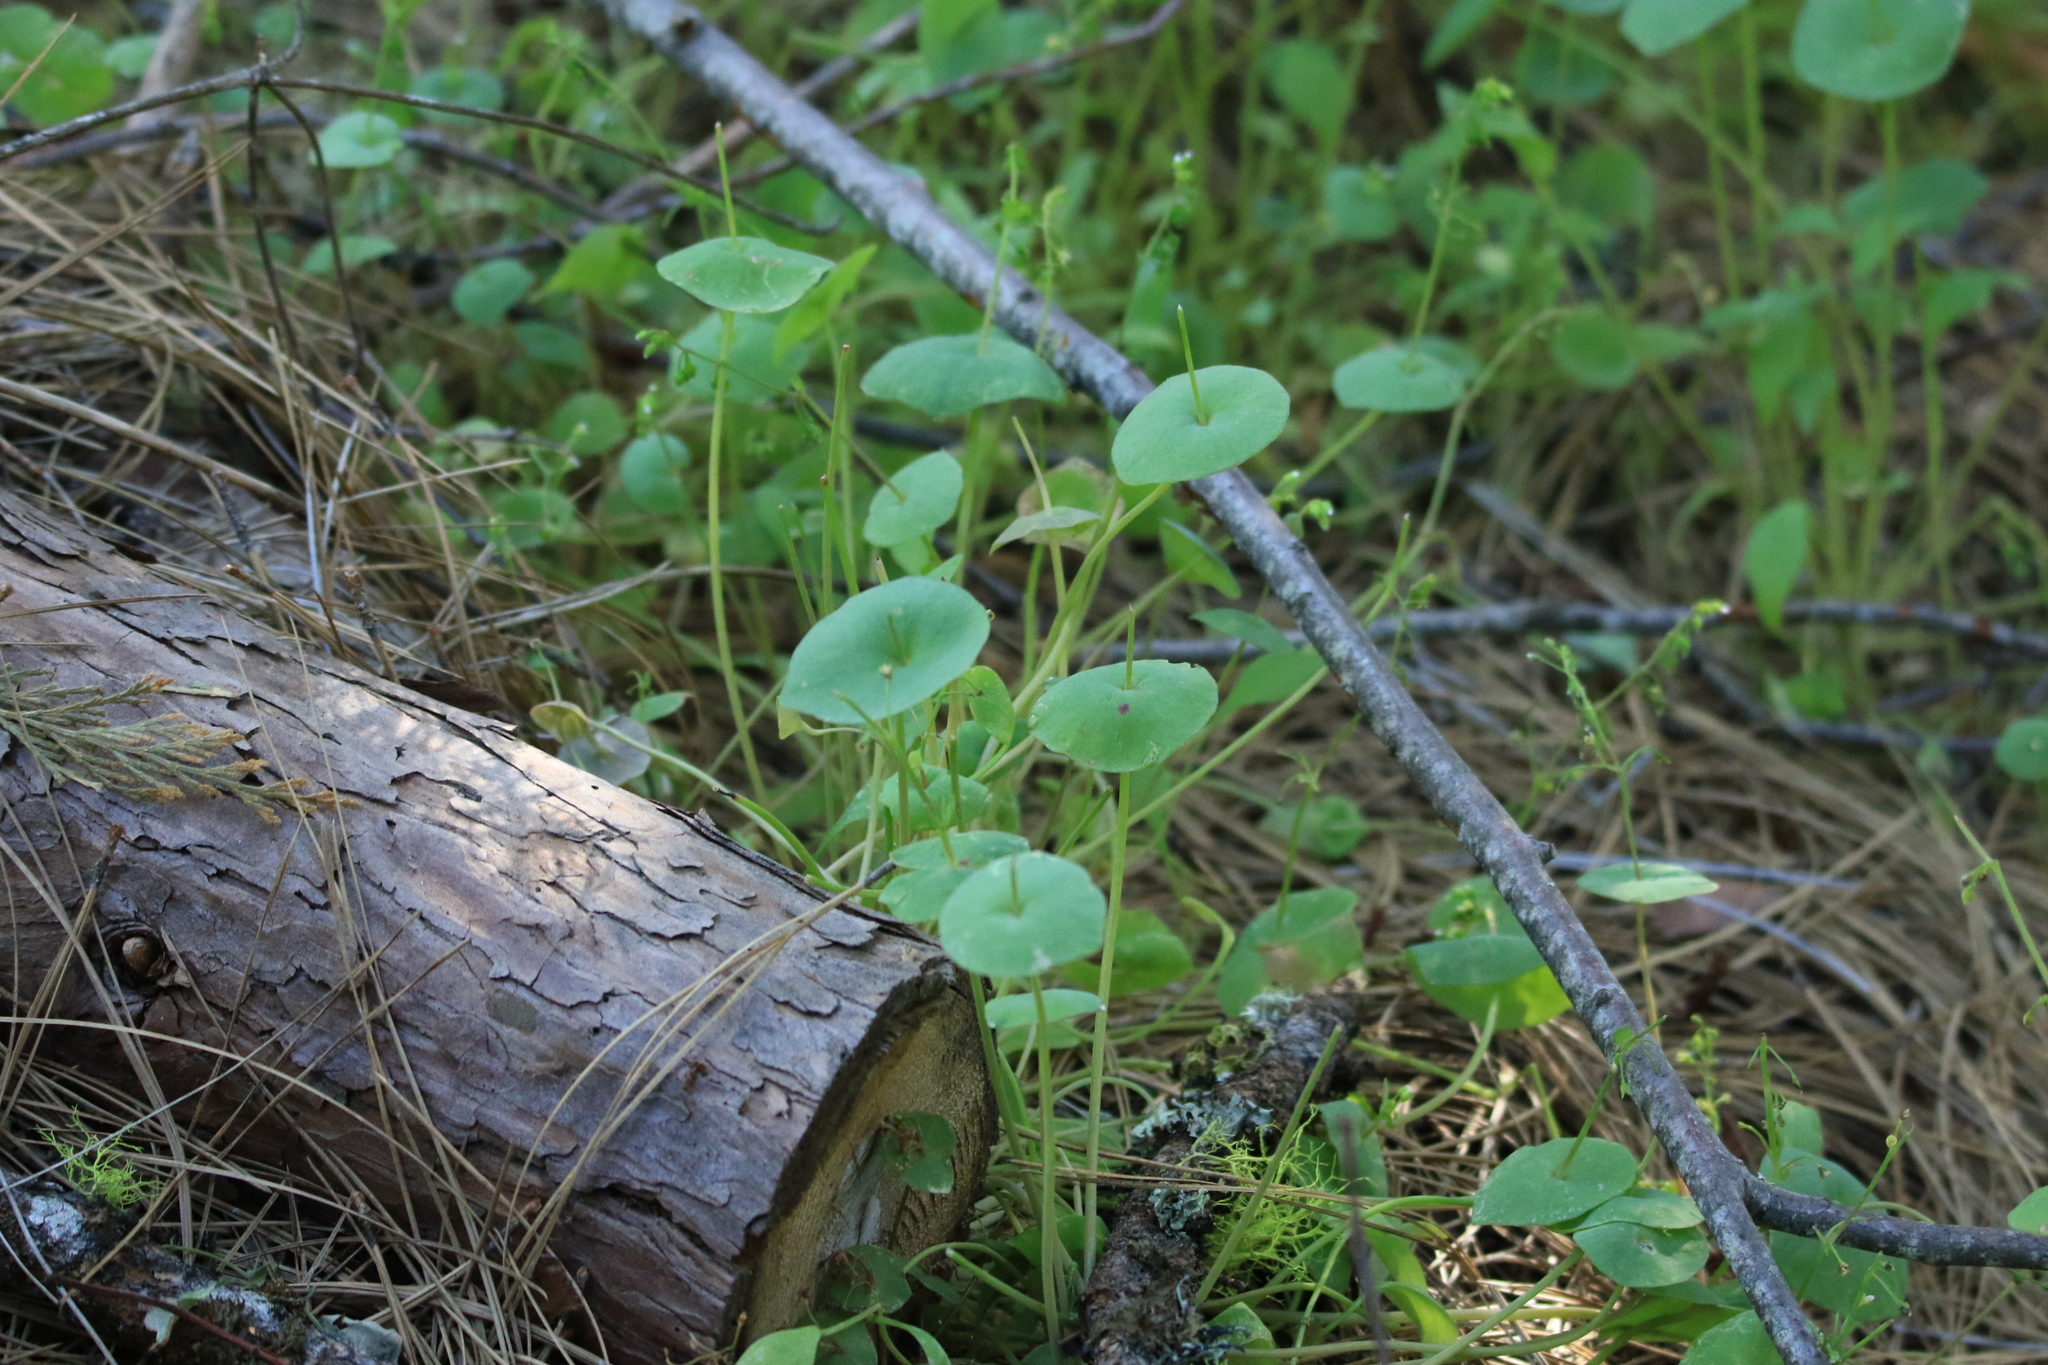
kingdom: Plantae
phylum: Tracheophyta
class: Magnoliopsida
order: Caryophyllales
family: Montiaceae
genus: Claytonia
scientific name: Claytonia perfoliata
